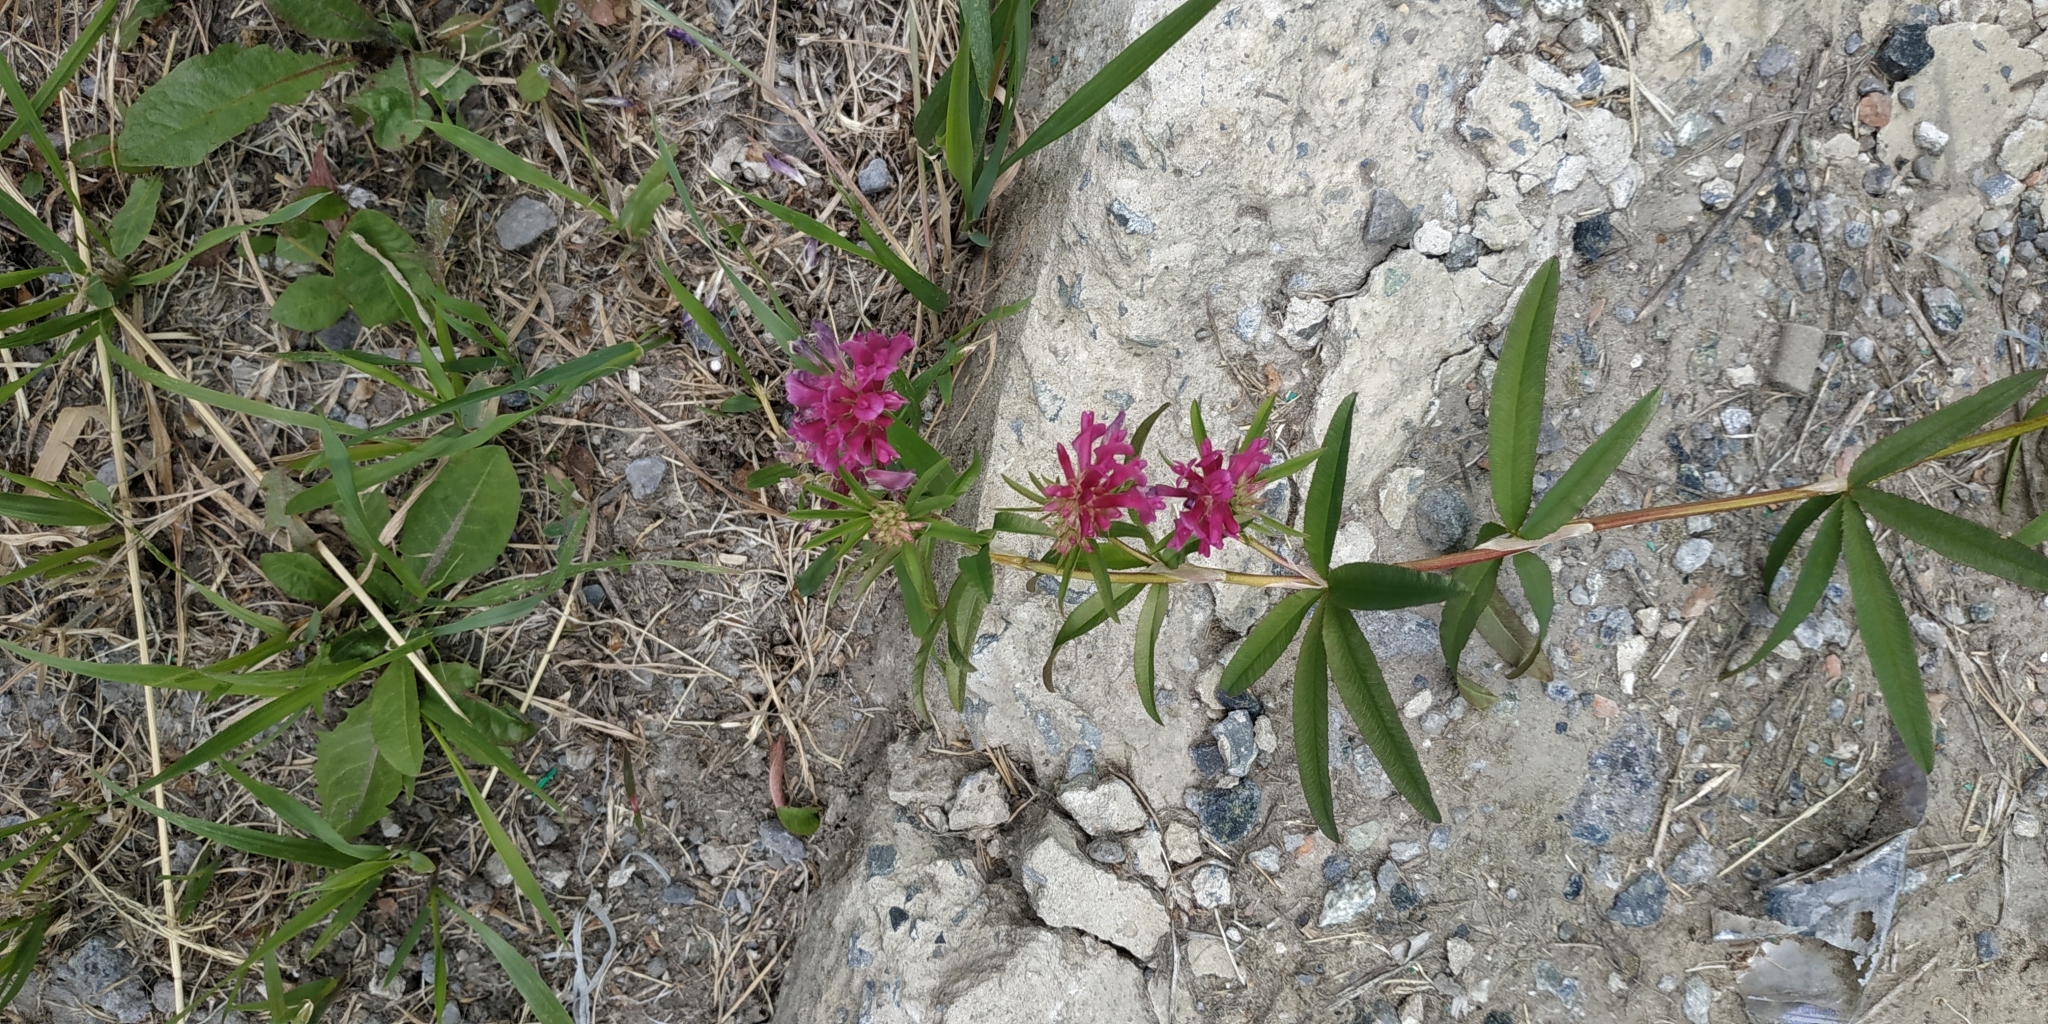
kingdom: Plantae
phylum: Tracheophyta
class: Magnoliopsida
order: Fabales
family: Fabaceae
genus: Trifolium
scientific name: Trifolium lupinaster
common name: Lupine clover
